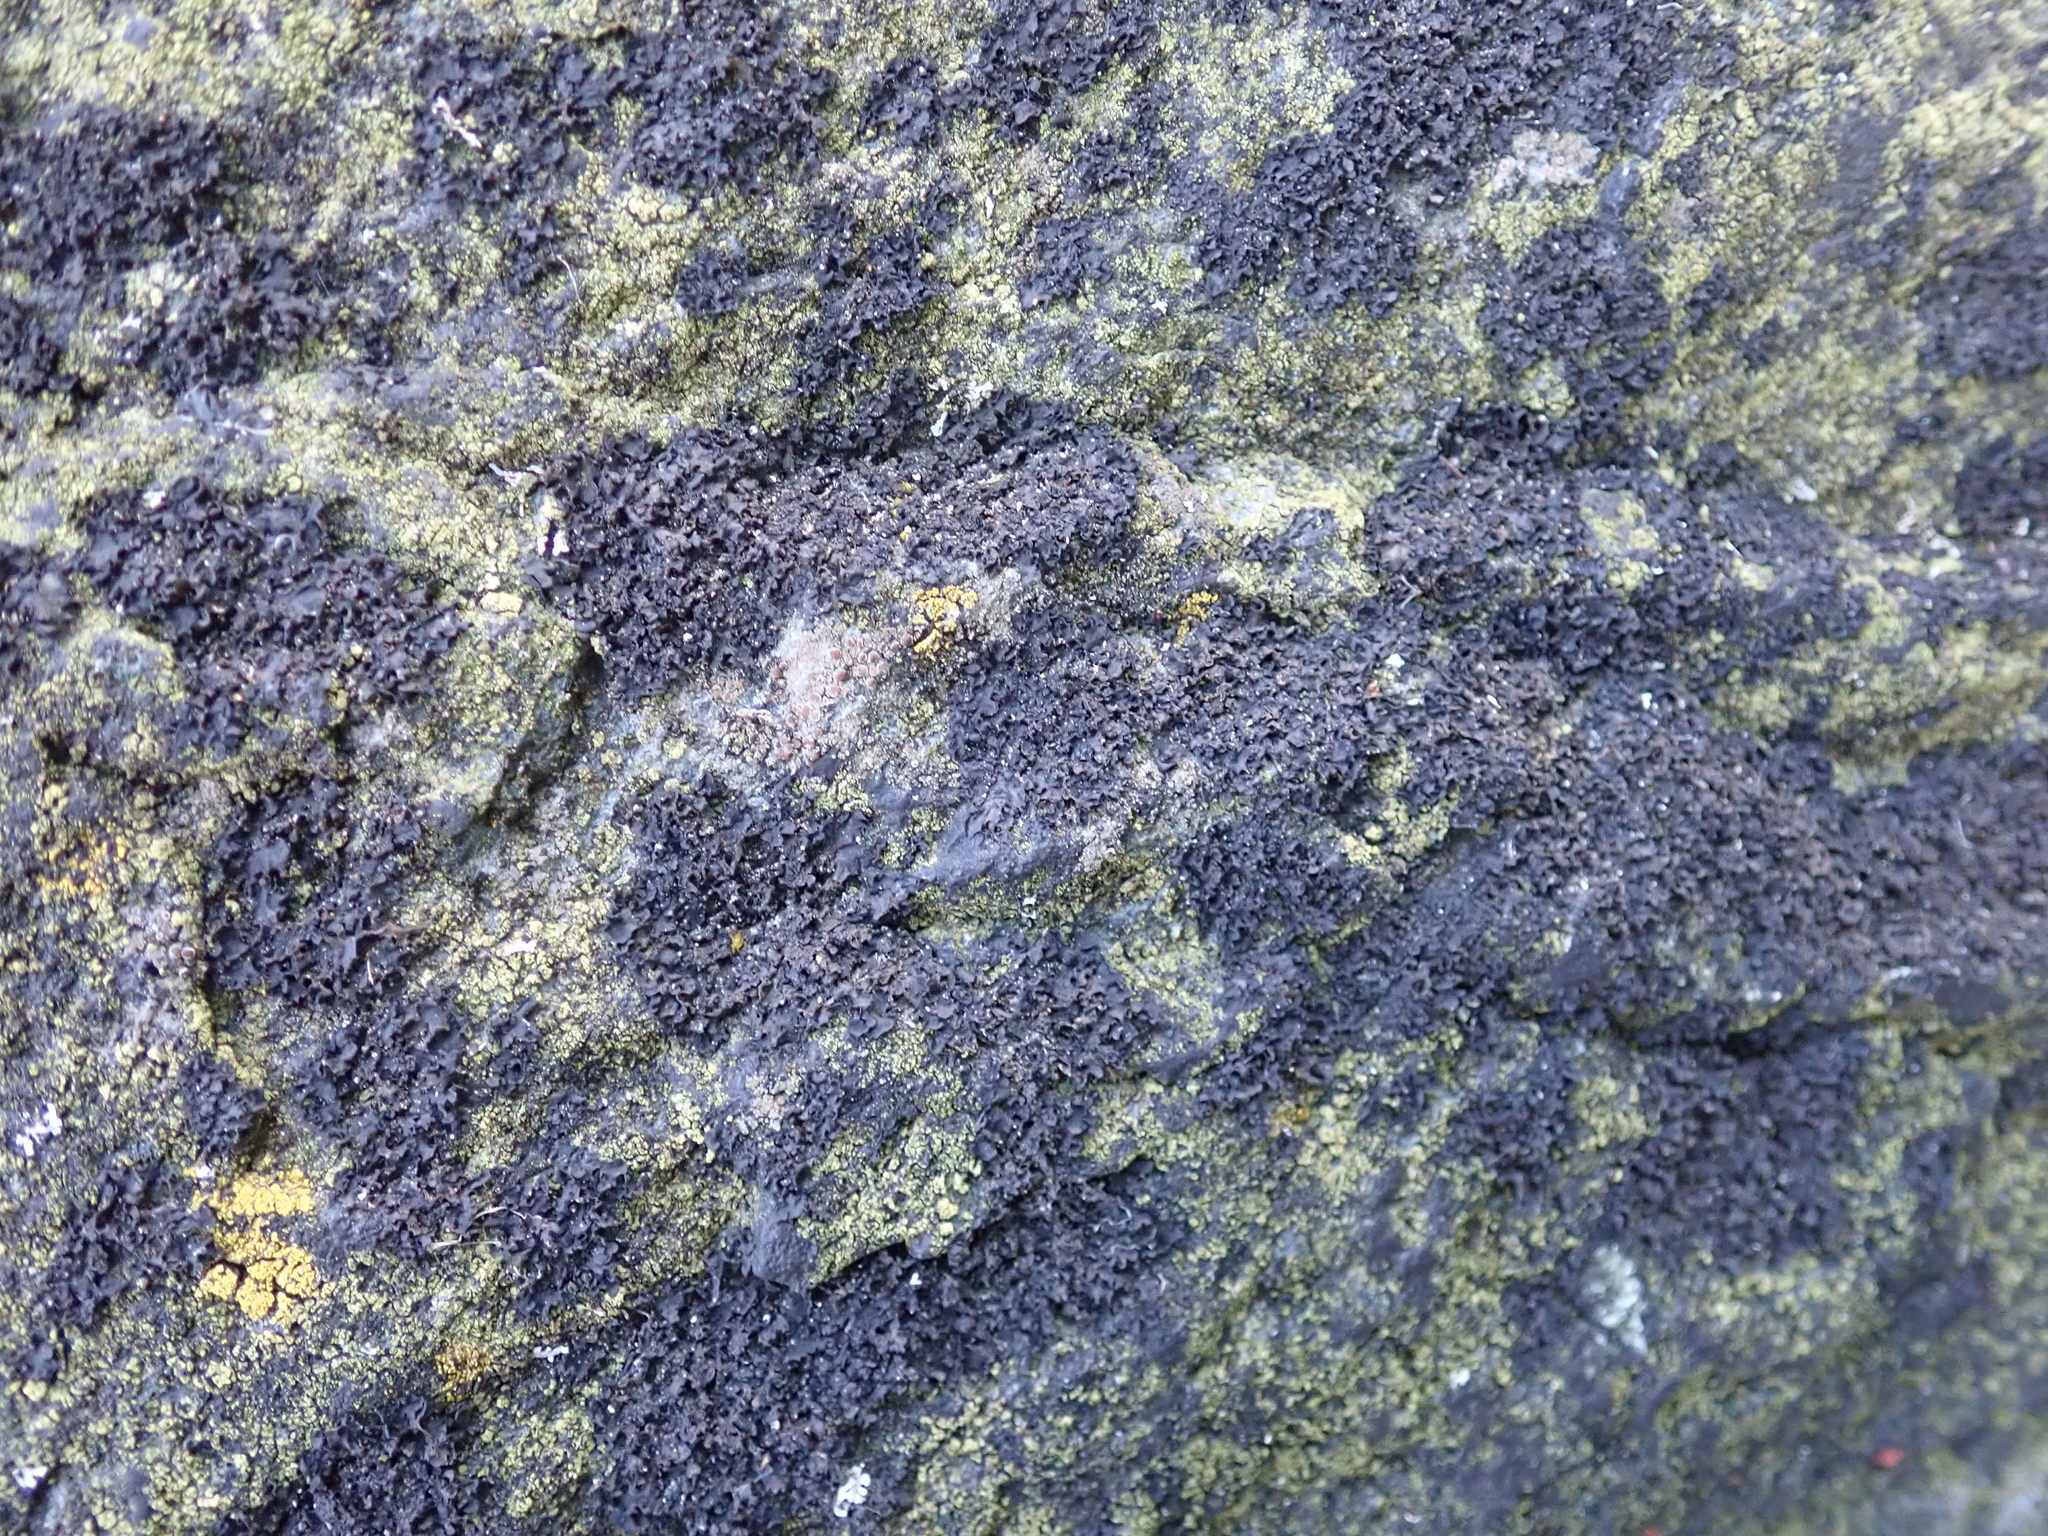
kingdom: Fungi
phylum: Ascomycota
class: Lecanoromycetes
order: Peltigerales
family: Collemataceae
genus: Blennothallia
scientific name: Blennothallia fecunda
